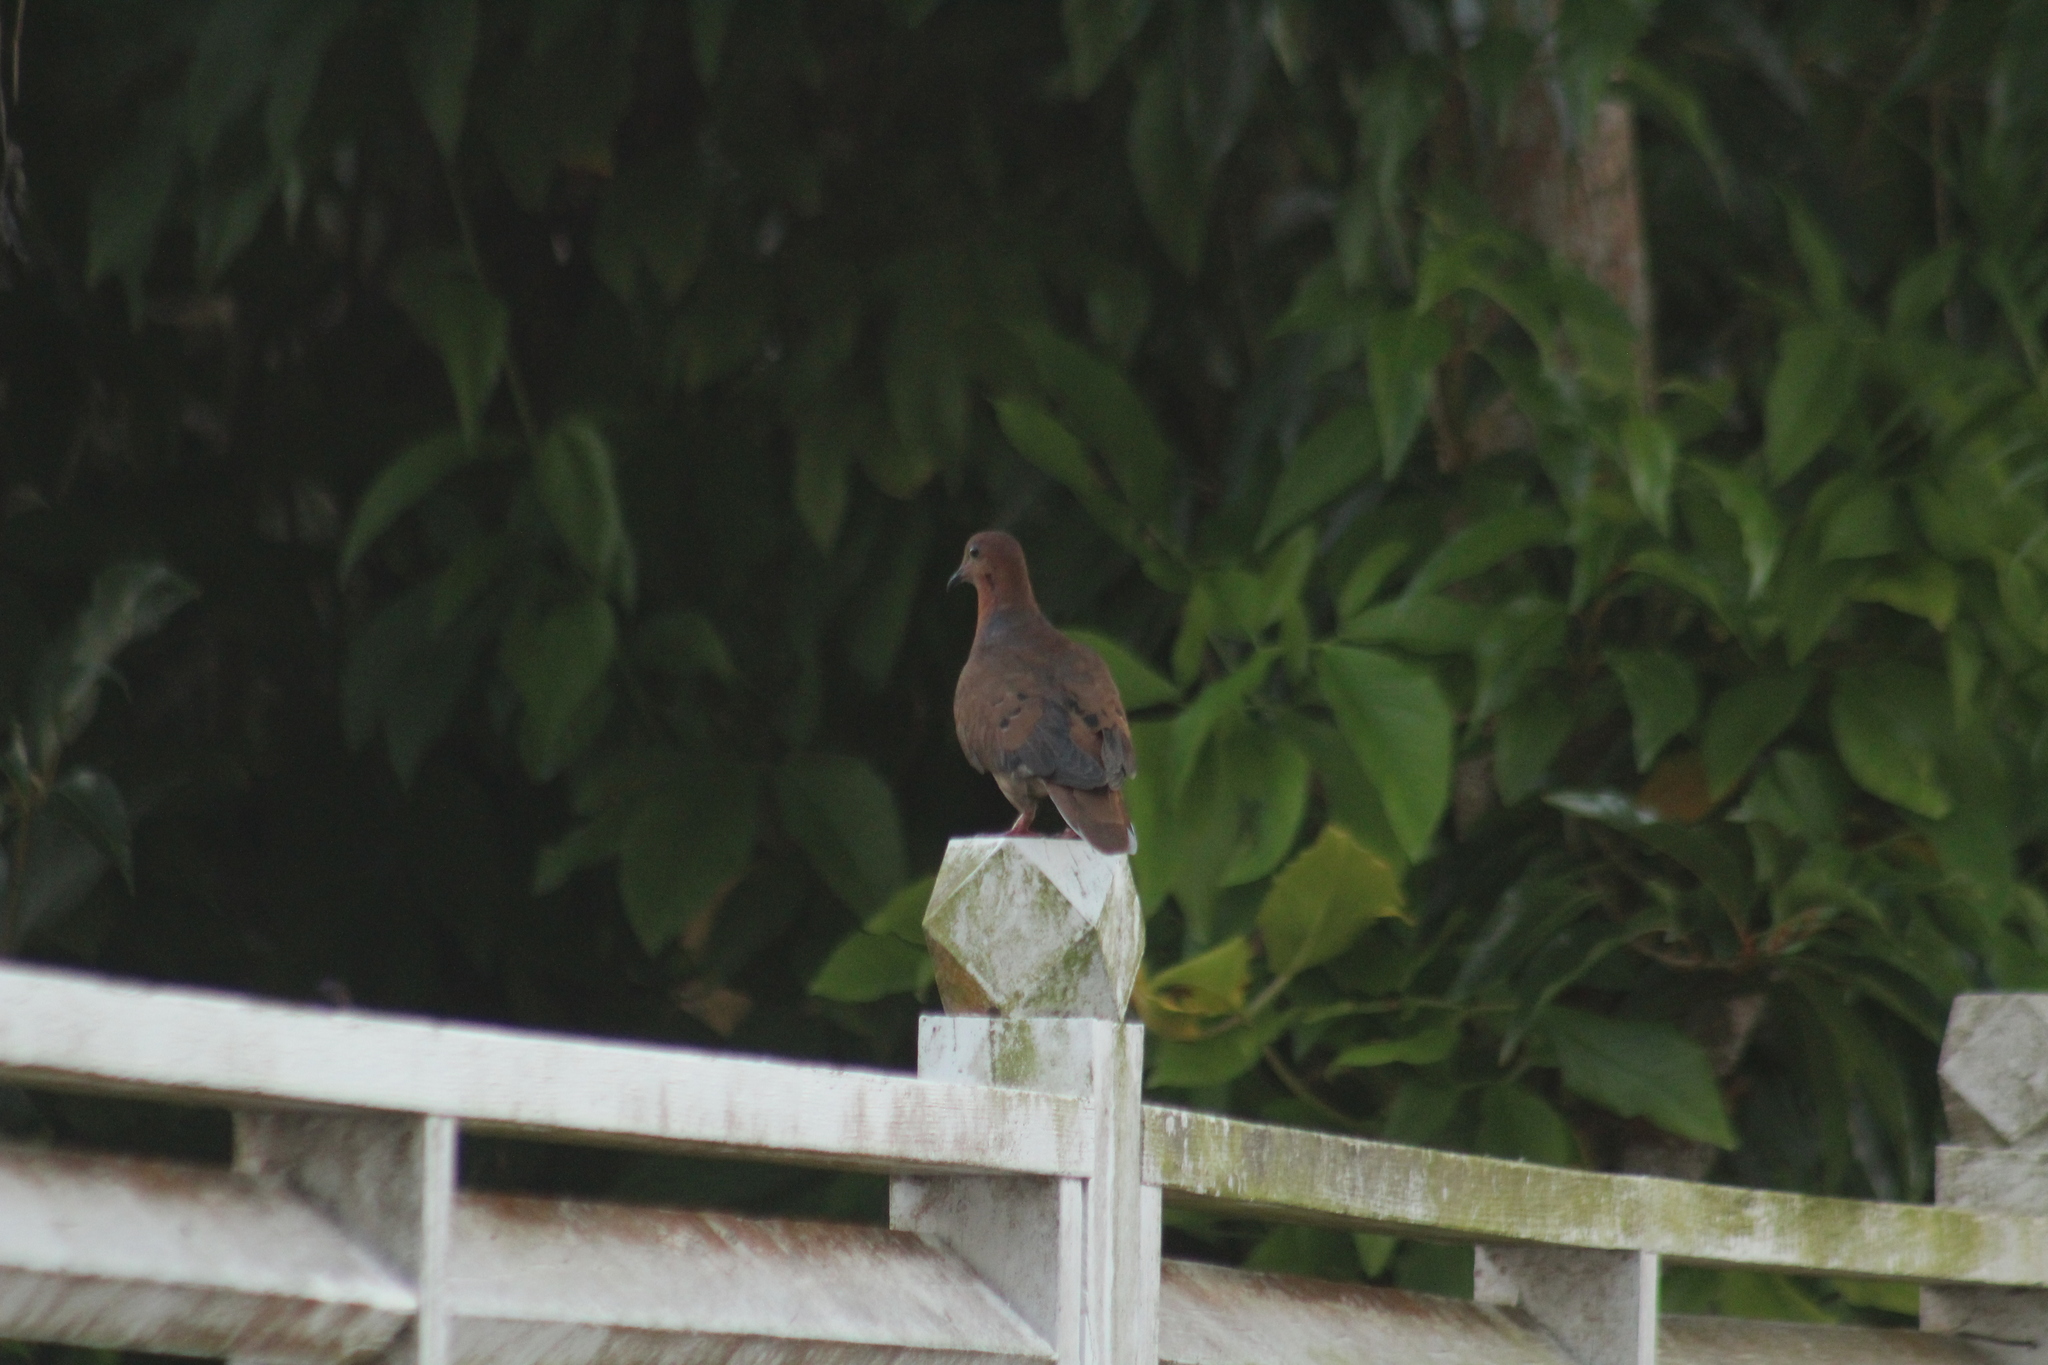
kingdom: Animalia
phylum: Chordata
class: Aves
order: Columbiformes
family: Columbidae
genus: Zenaida
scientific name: Zenaida aurita
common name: Zenaida dove
